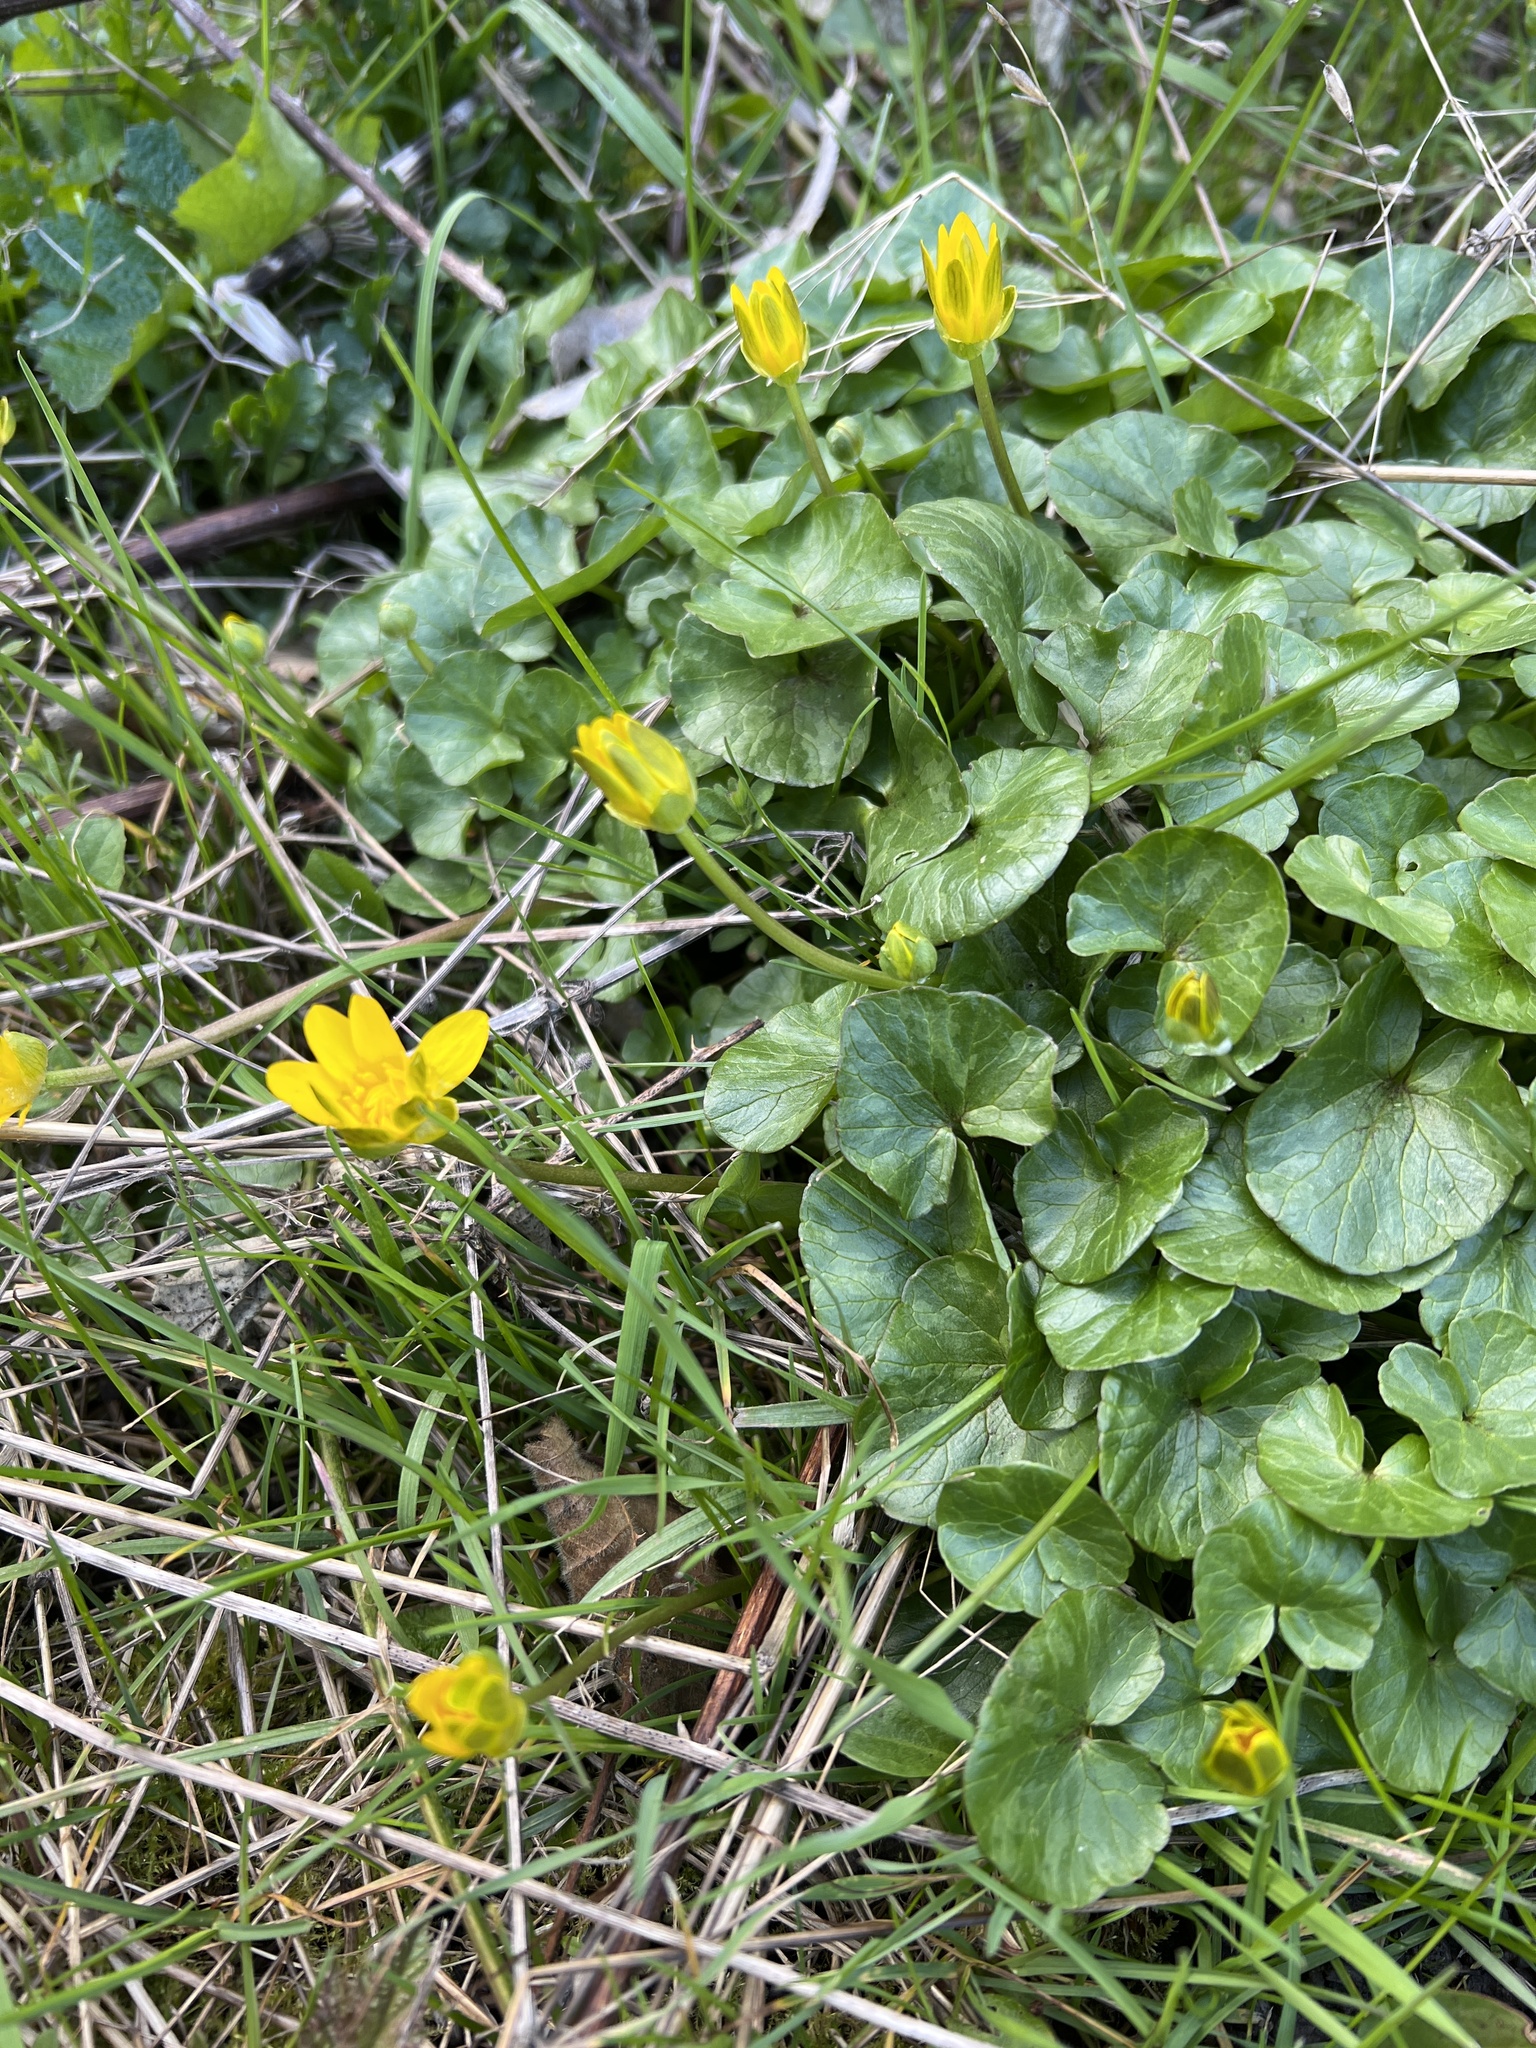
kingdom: Plantae
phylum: Tracheophyta
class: Magnoliopsida
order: Ranunculales
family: Ranunculaceae
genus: Ficaria
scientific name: Ficaria verna
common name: Lesser celandine
